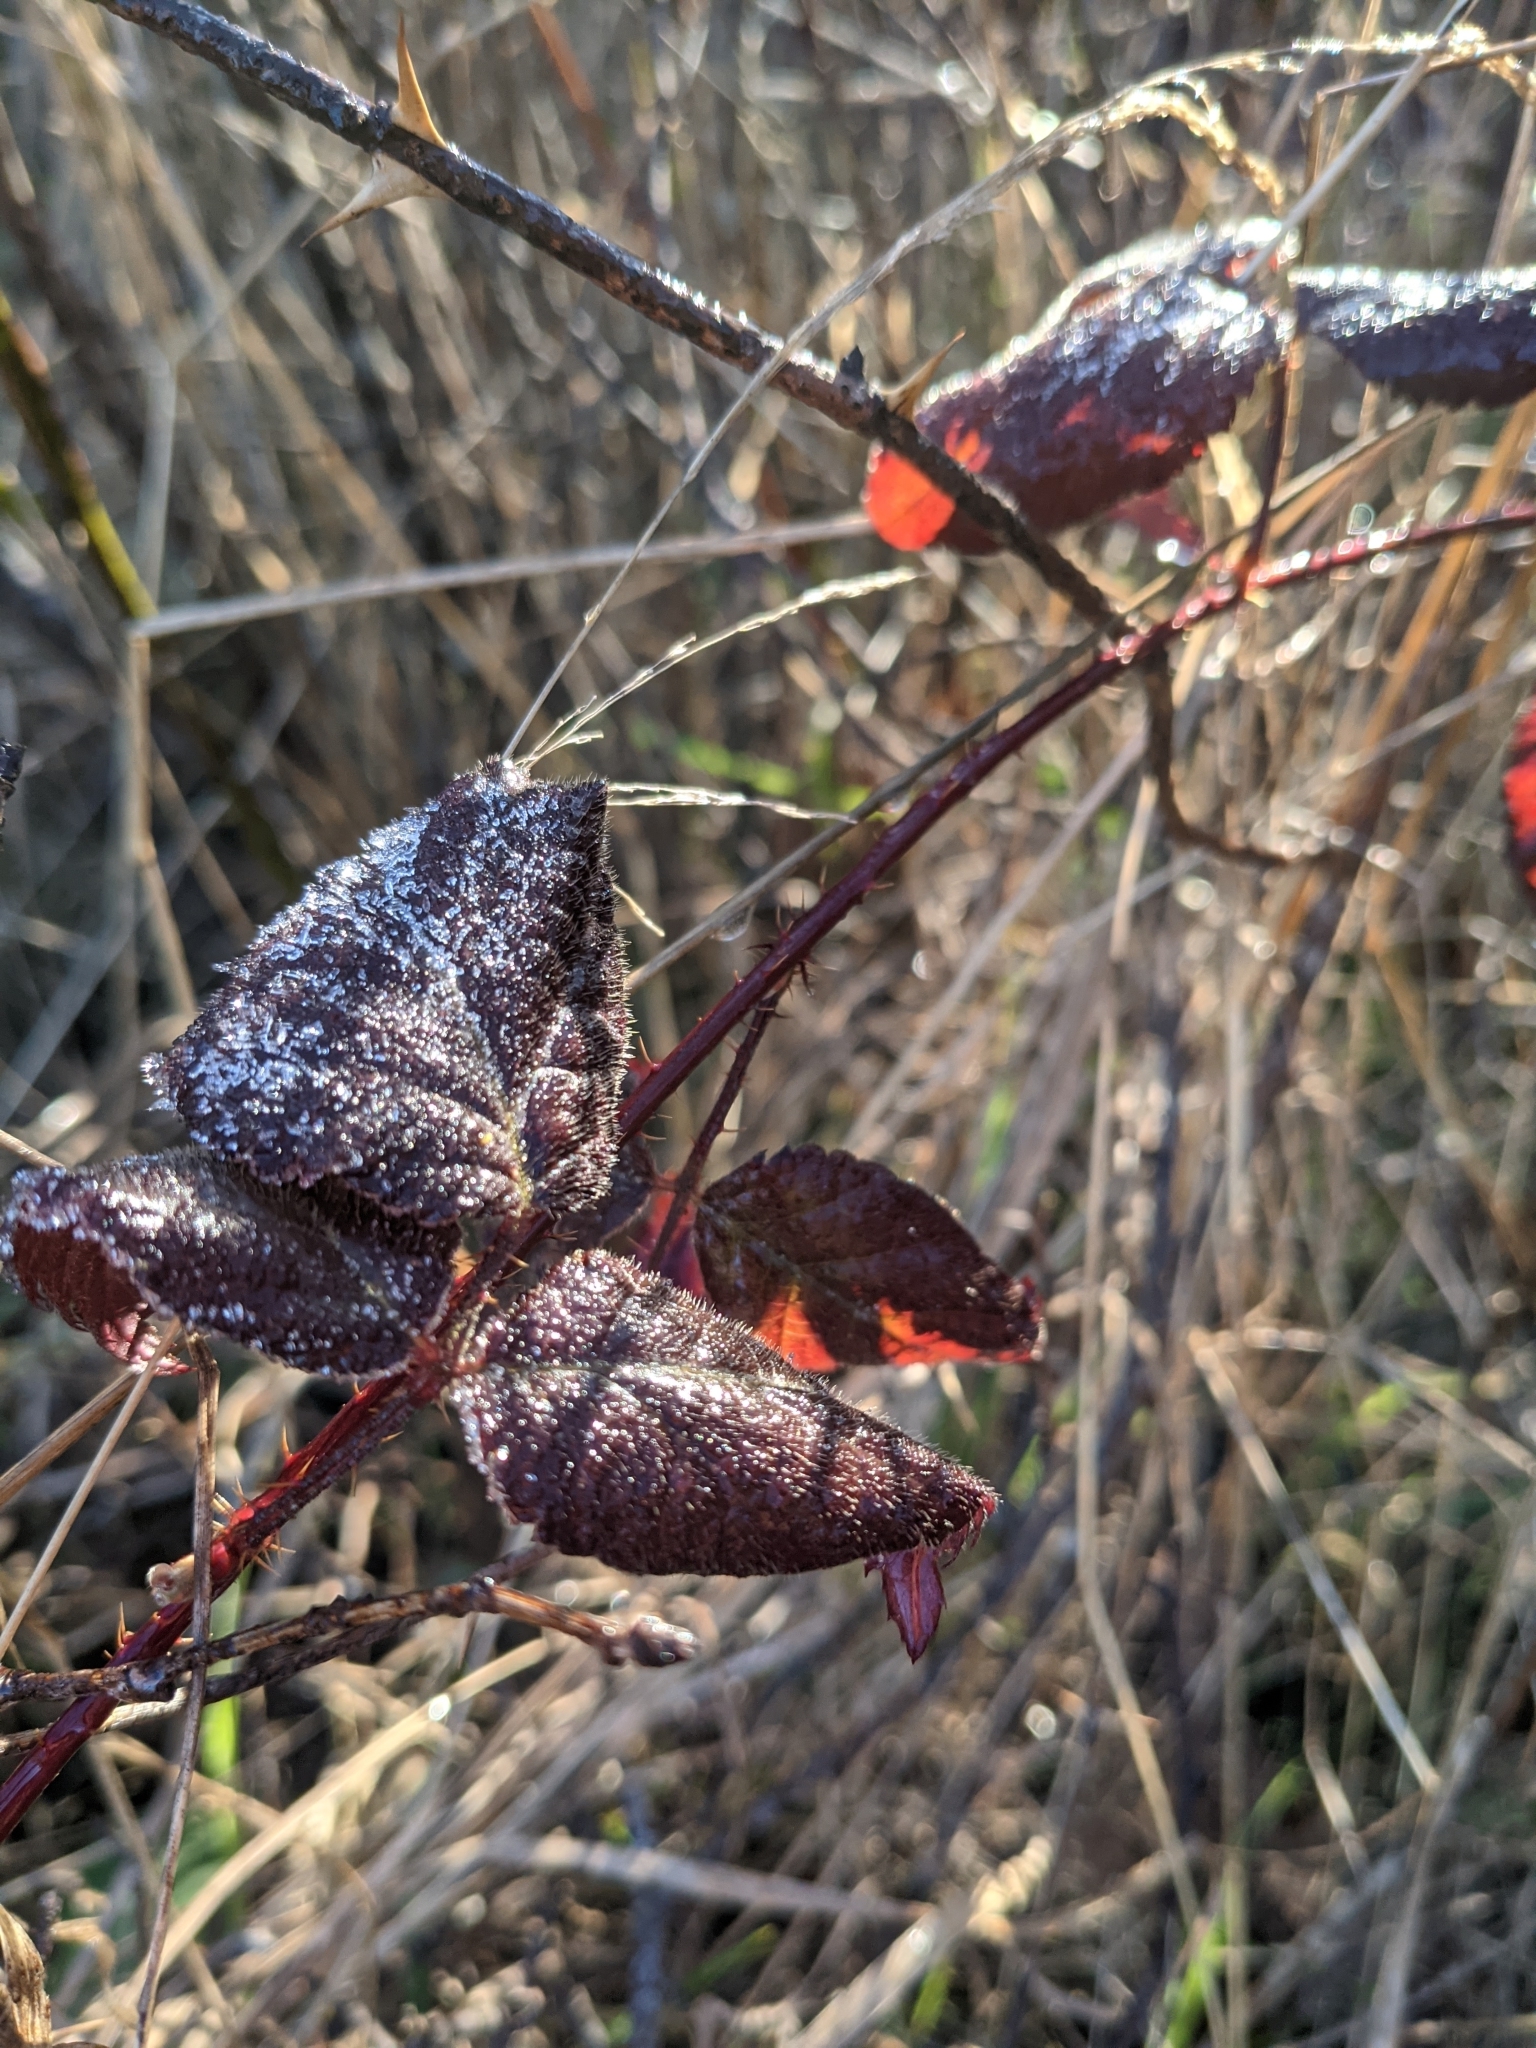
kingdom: Plantae
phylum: Tracheophyta
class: Magnoliopsida
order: Rosales
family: Rosaceae
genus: Rubus
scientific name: Rubus ursinus
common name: Pacific blackberry
